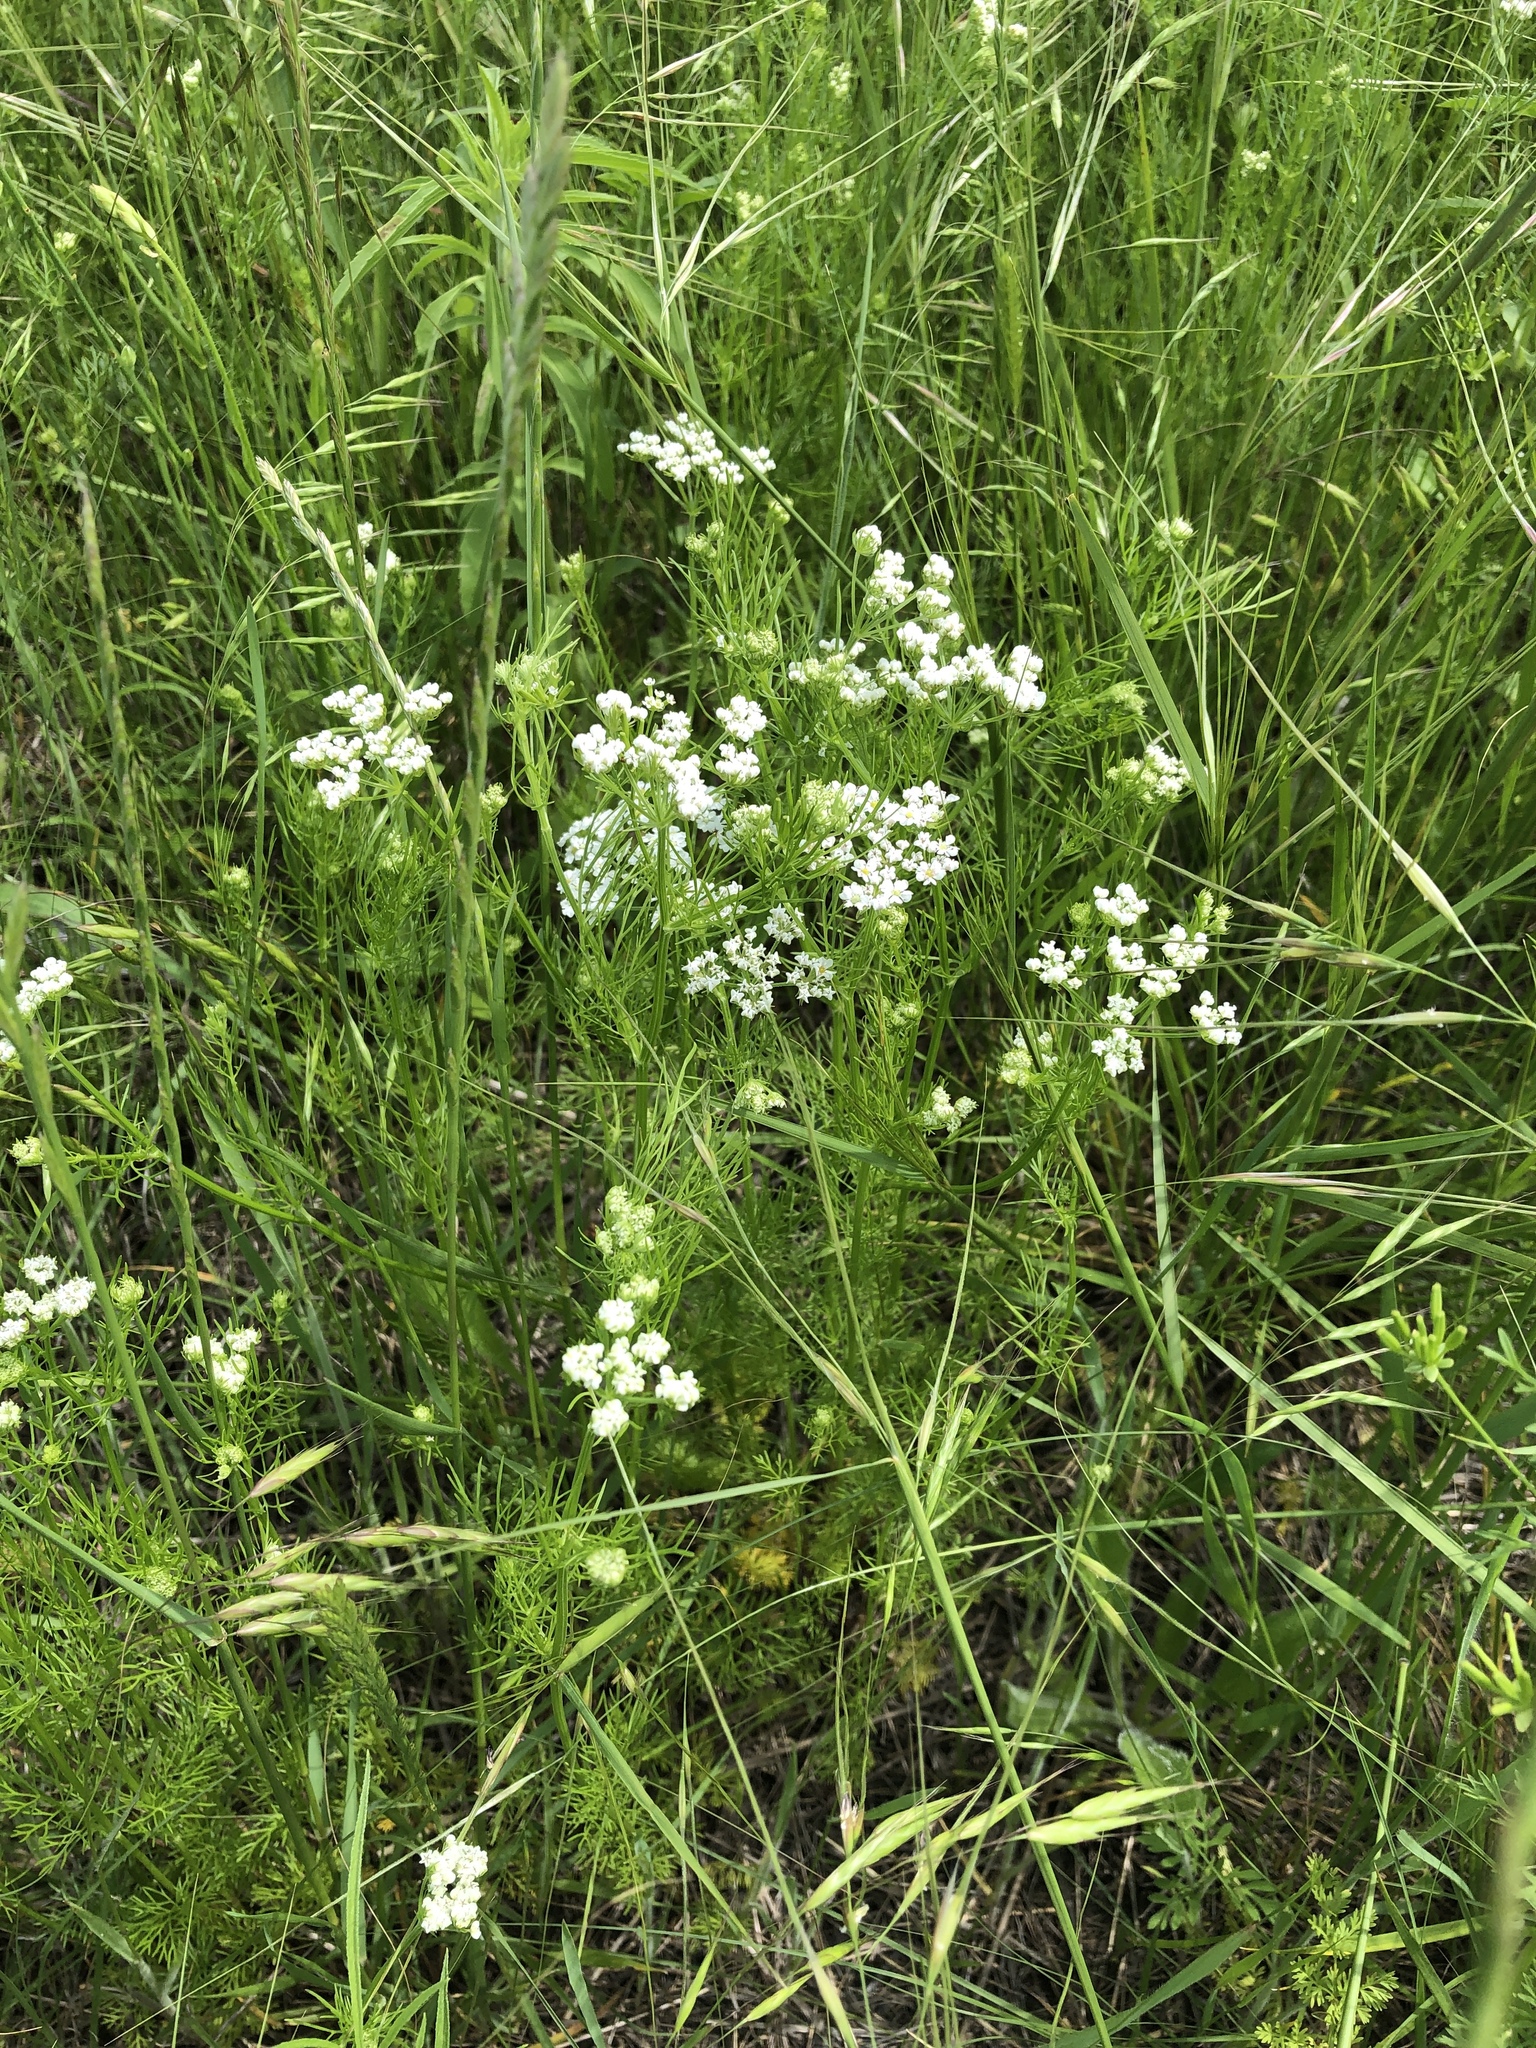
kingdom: Plantae
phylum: Tracheophyta
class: Magnoliopsida
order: Apiales
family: Apiaceae
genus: Atrema
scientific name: Atrema americanum
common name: Prairie-bishop
